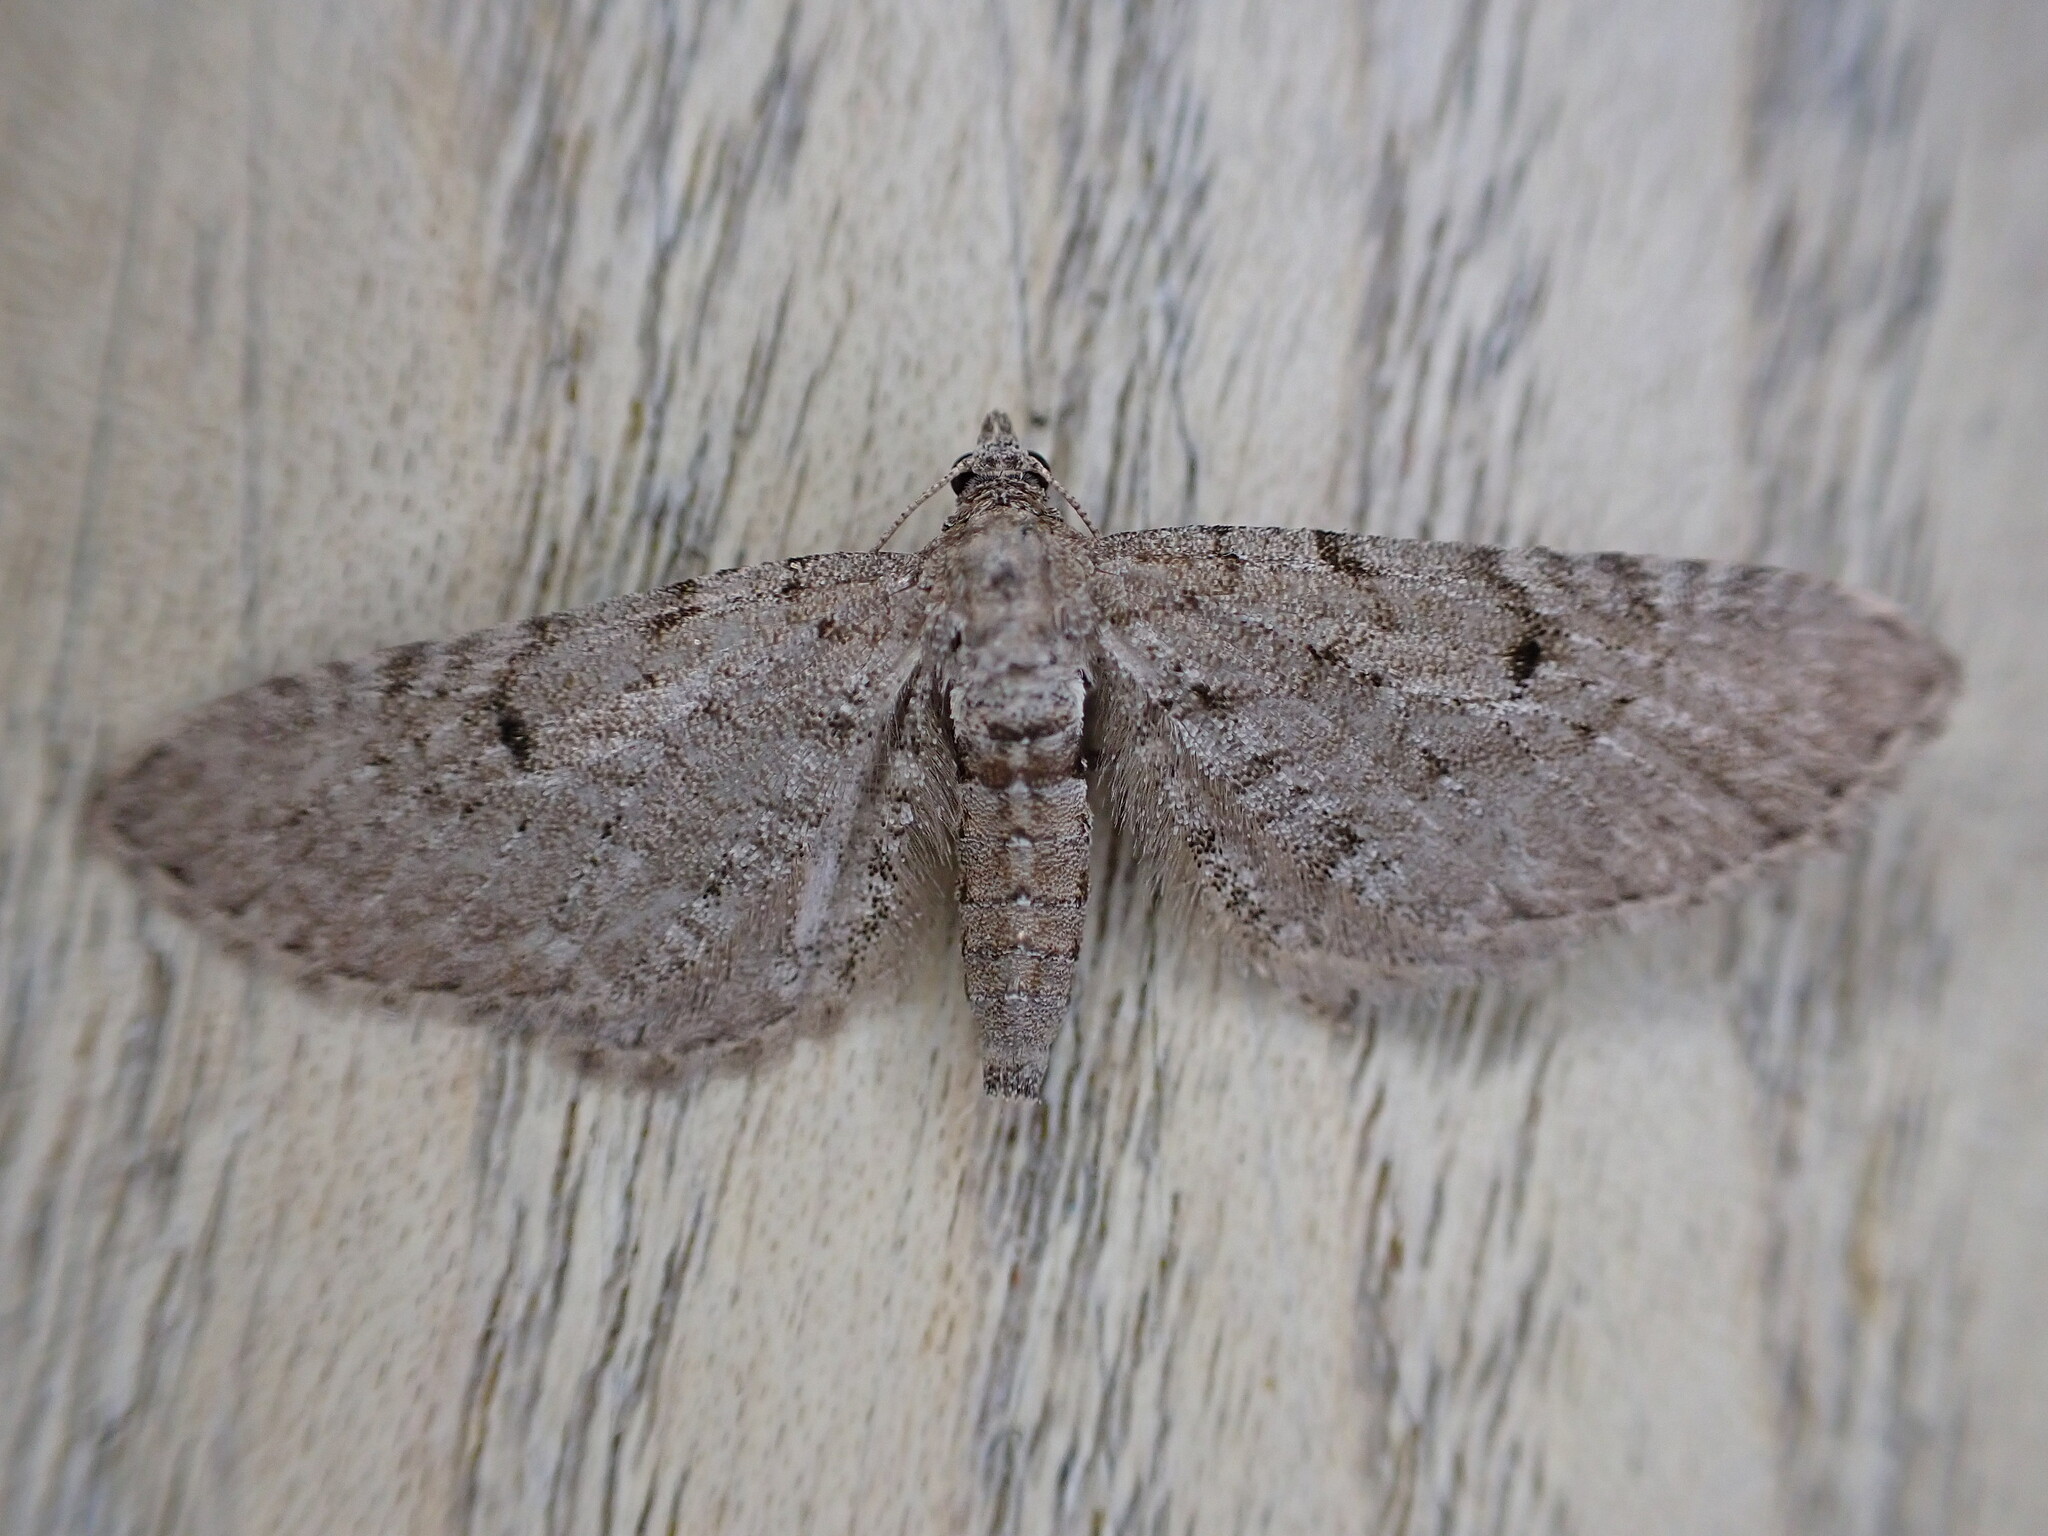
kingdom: Animalia
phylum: Arthropoda
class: Insecta
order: Lepidoptera
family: Geometridae
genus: Eupithecia
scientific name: Eupithecia intricata
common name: Freyers pug
